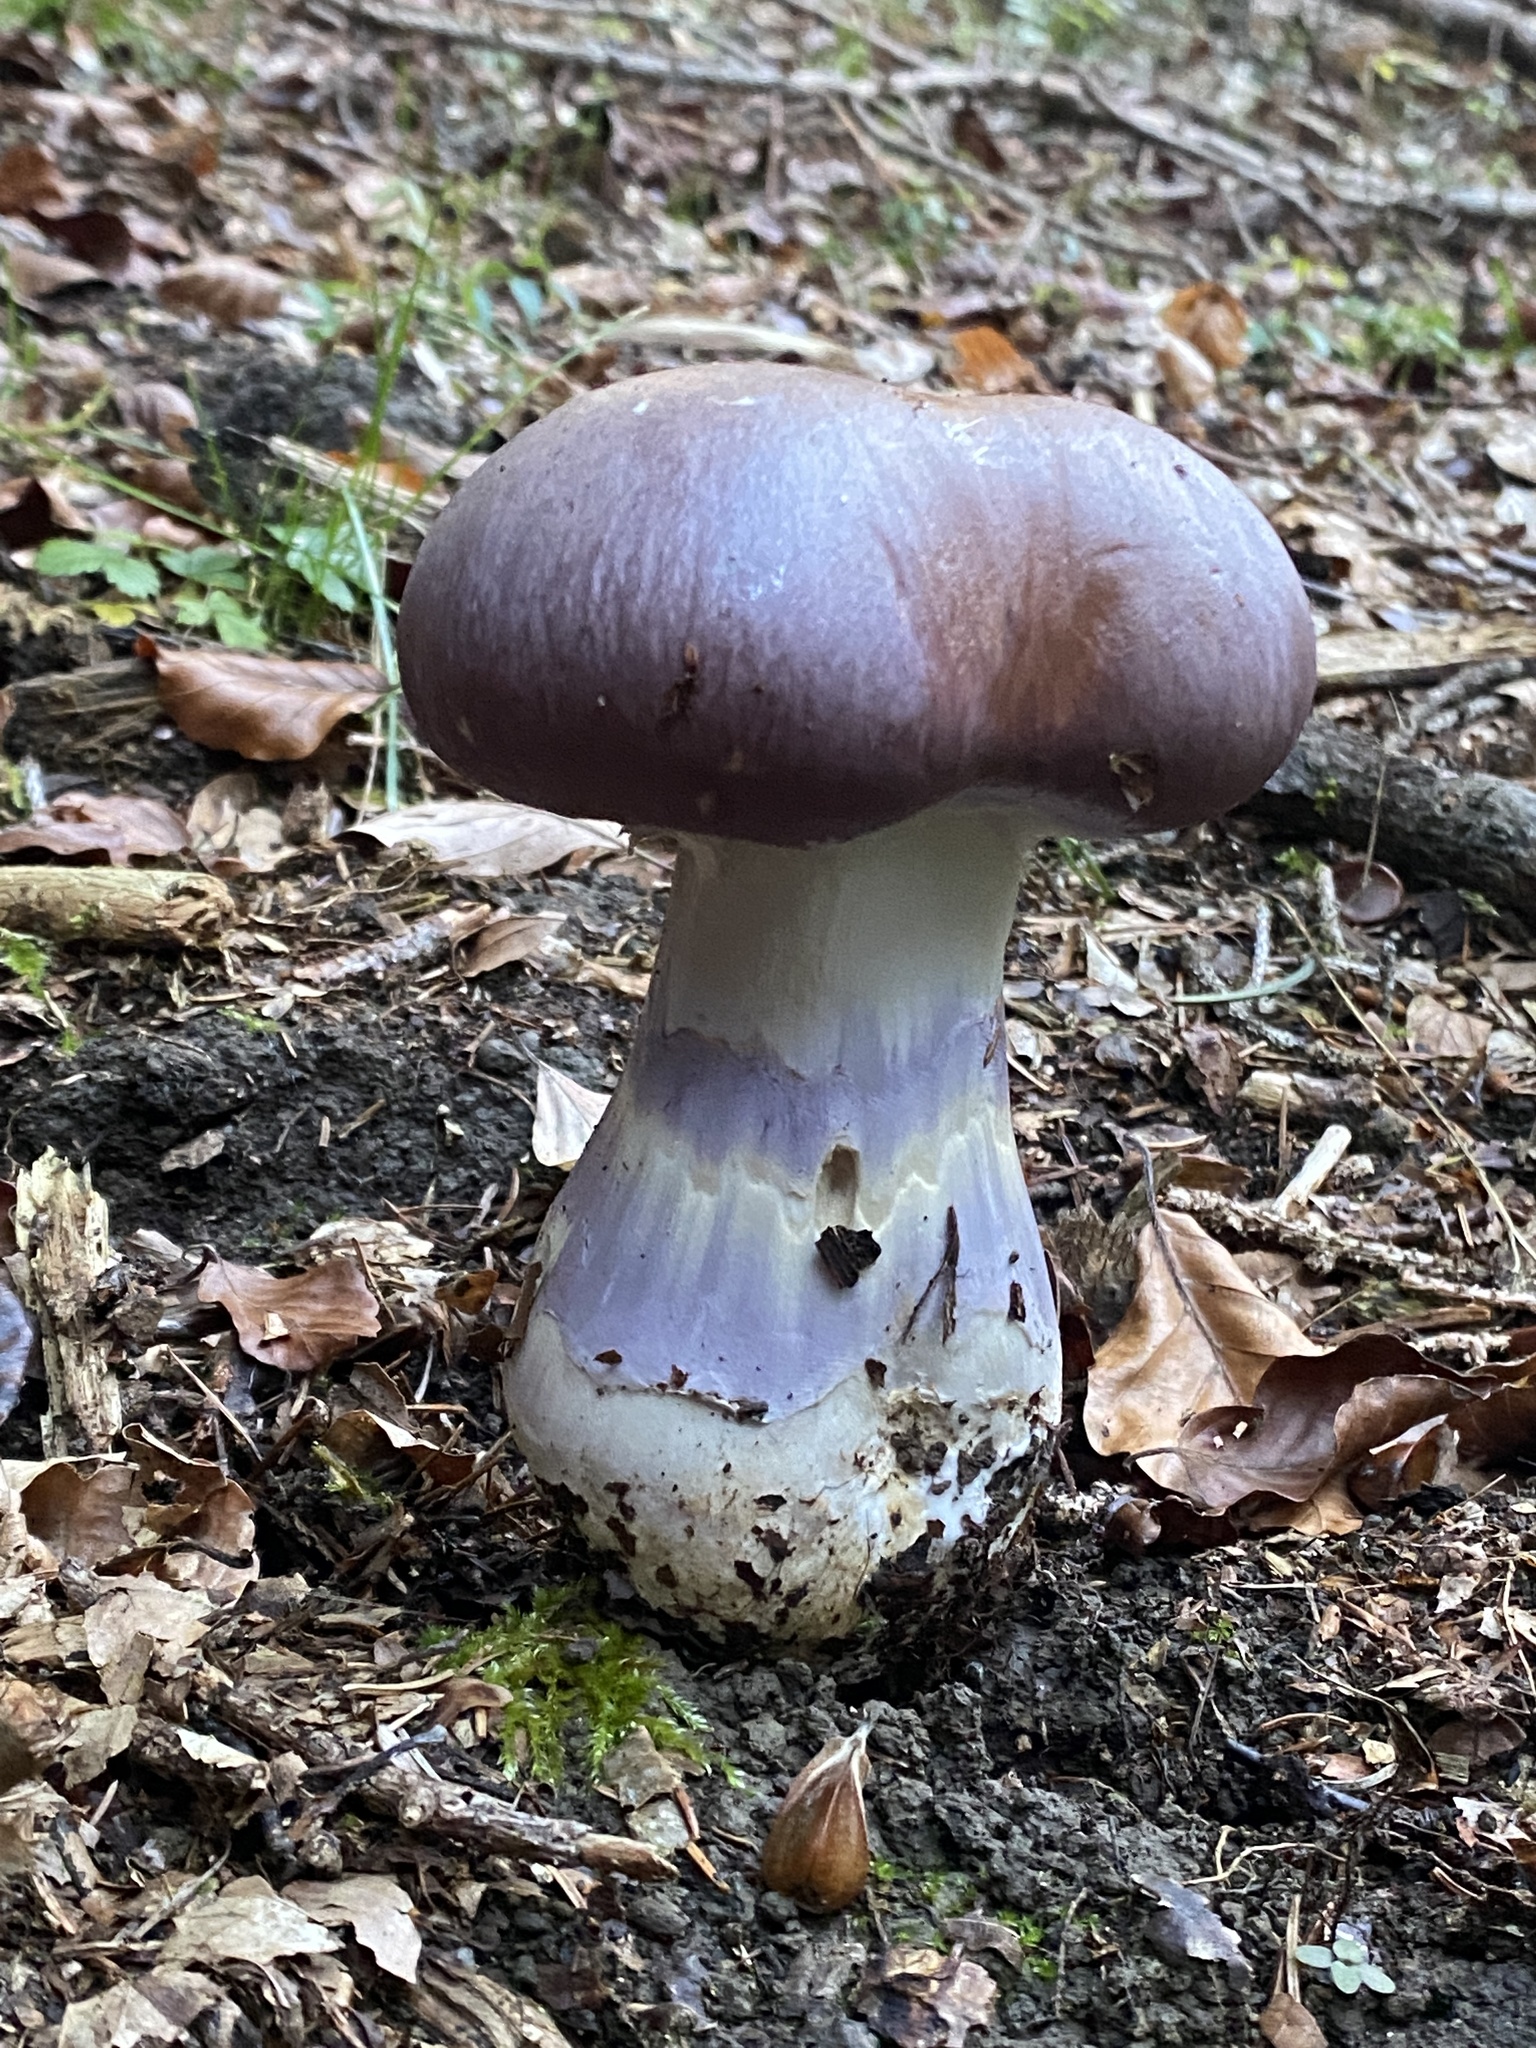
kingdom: Fungi
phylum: Basidiomycota
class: Agaricomycetes
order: Agaricales
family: Cortinariaceae
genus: Cortinarius
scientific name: Cortinarius praestans
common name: Goliath webcap
